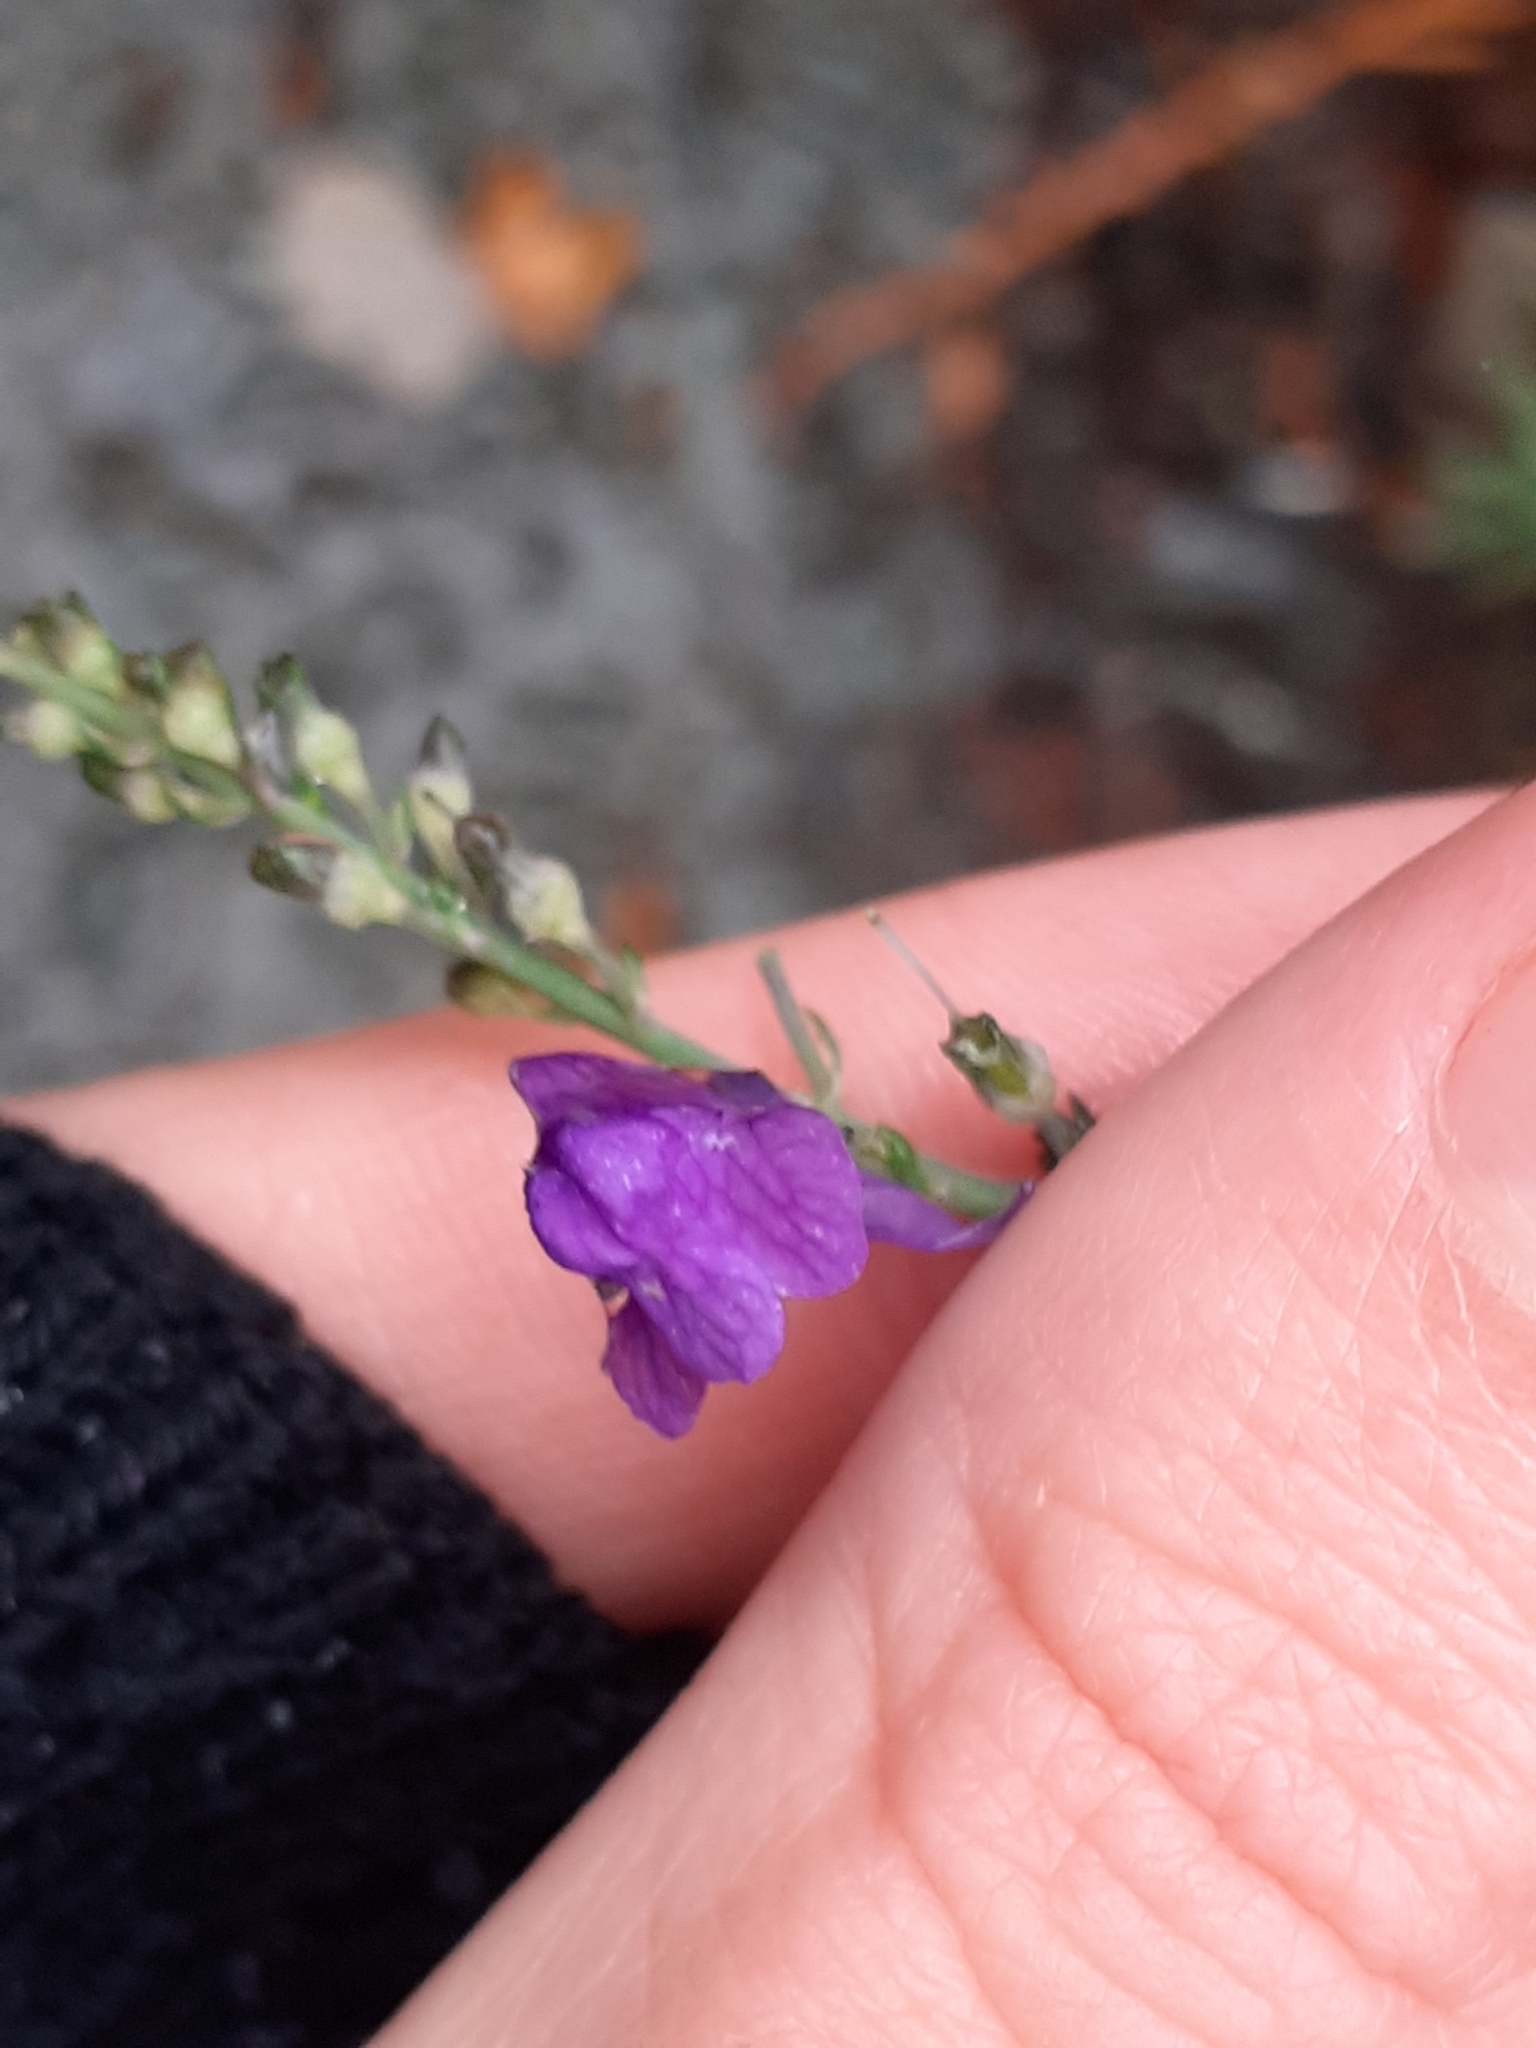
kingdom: Plantae
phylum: Tracheophyta
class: Magnoliopsida
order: Lamiales
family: Plantaginaceae
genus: Linaria
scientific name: Linaria purpurea
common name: Purple toadflax
